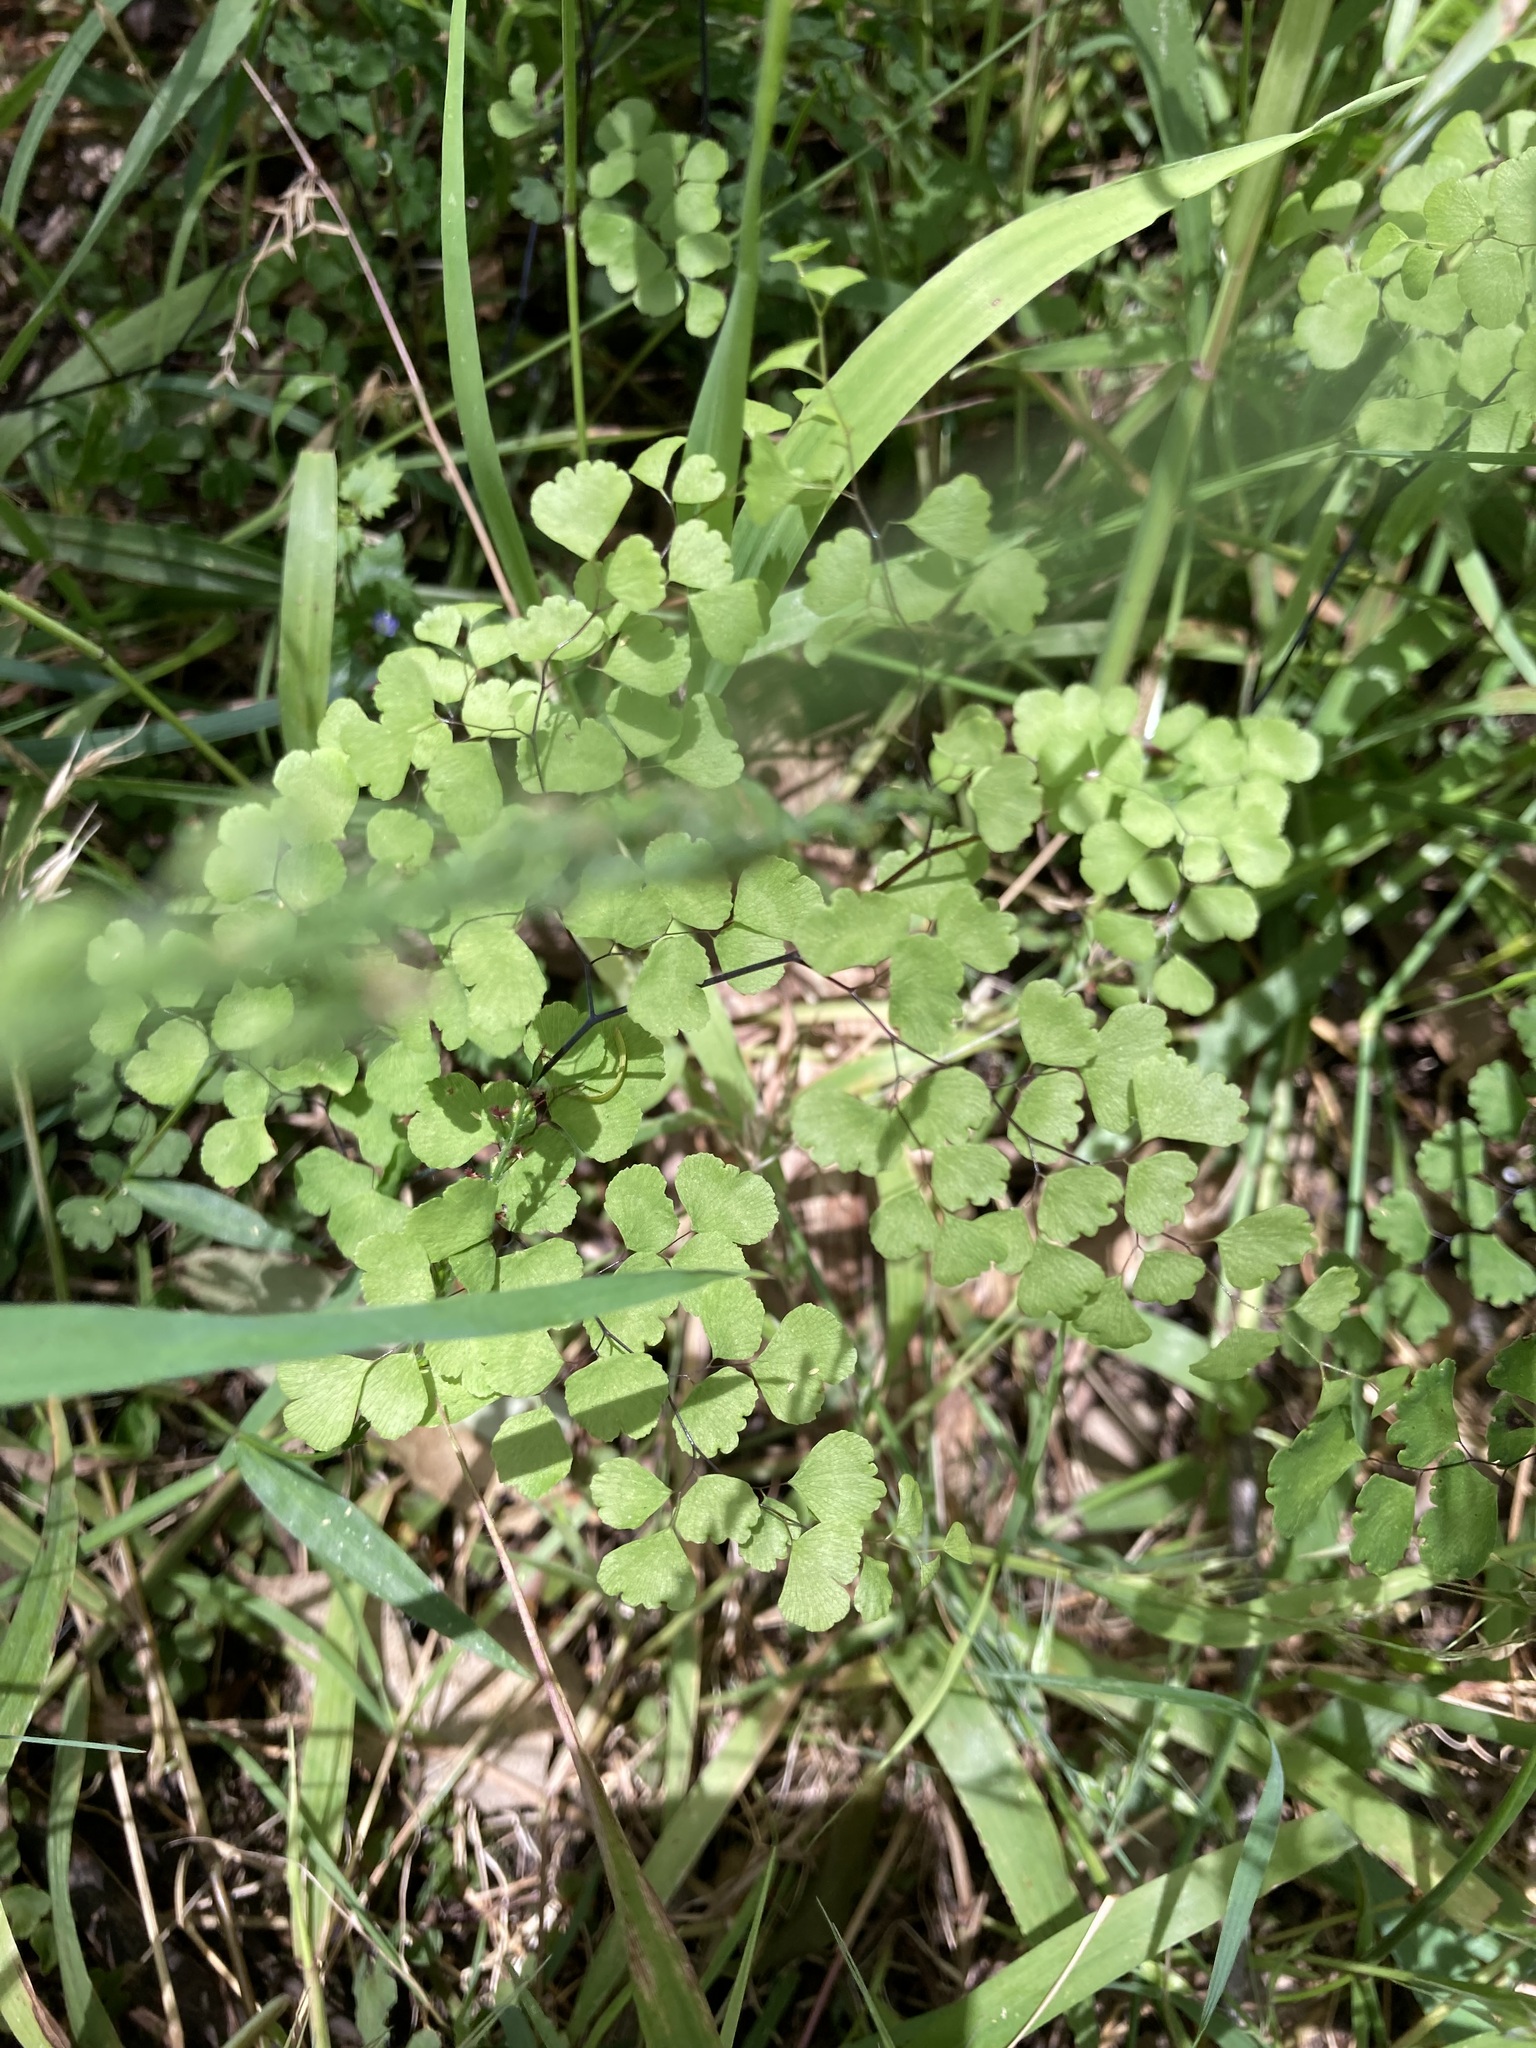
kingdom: Plantae
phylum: Tracheophyta
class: Polypodiopsida
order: Polypodiales
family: Pteridaceae
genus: Adiantum
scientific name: Adiantum aethiopicum
